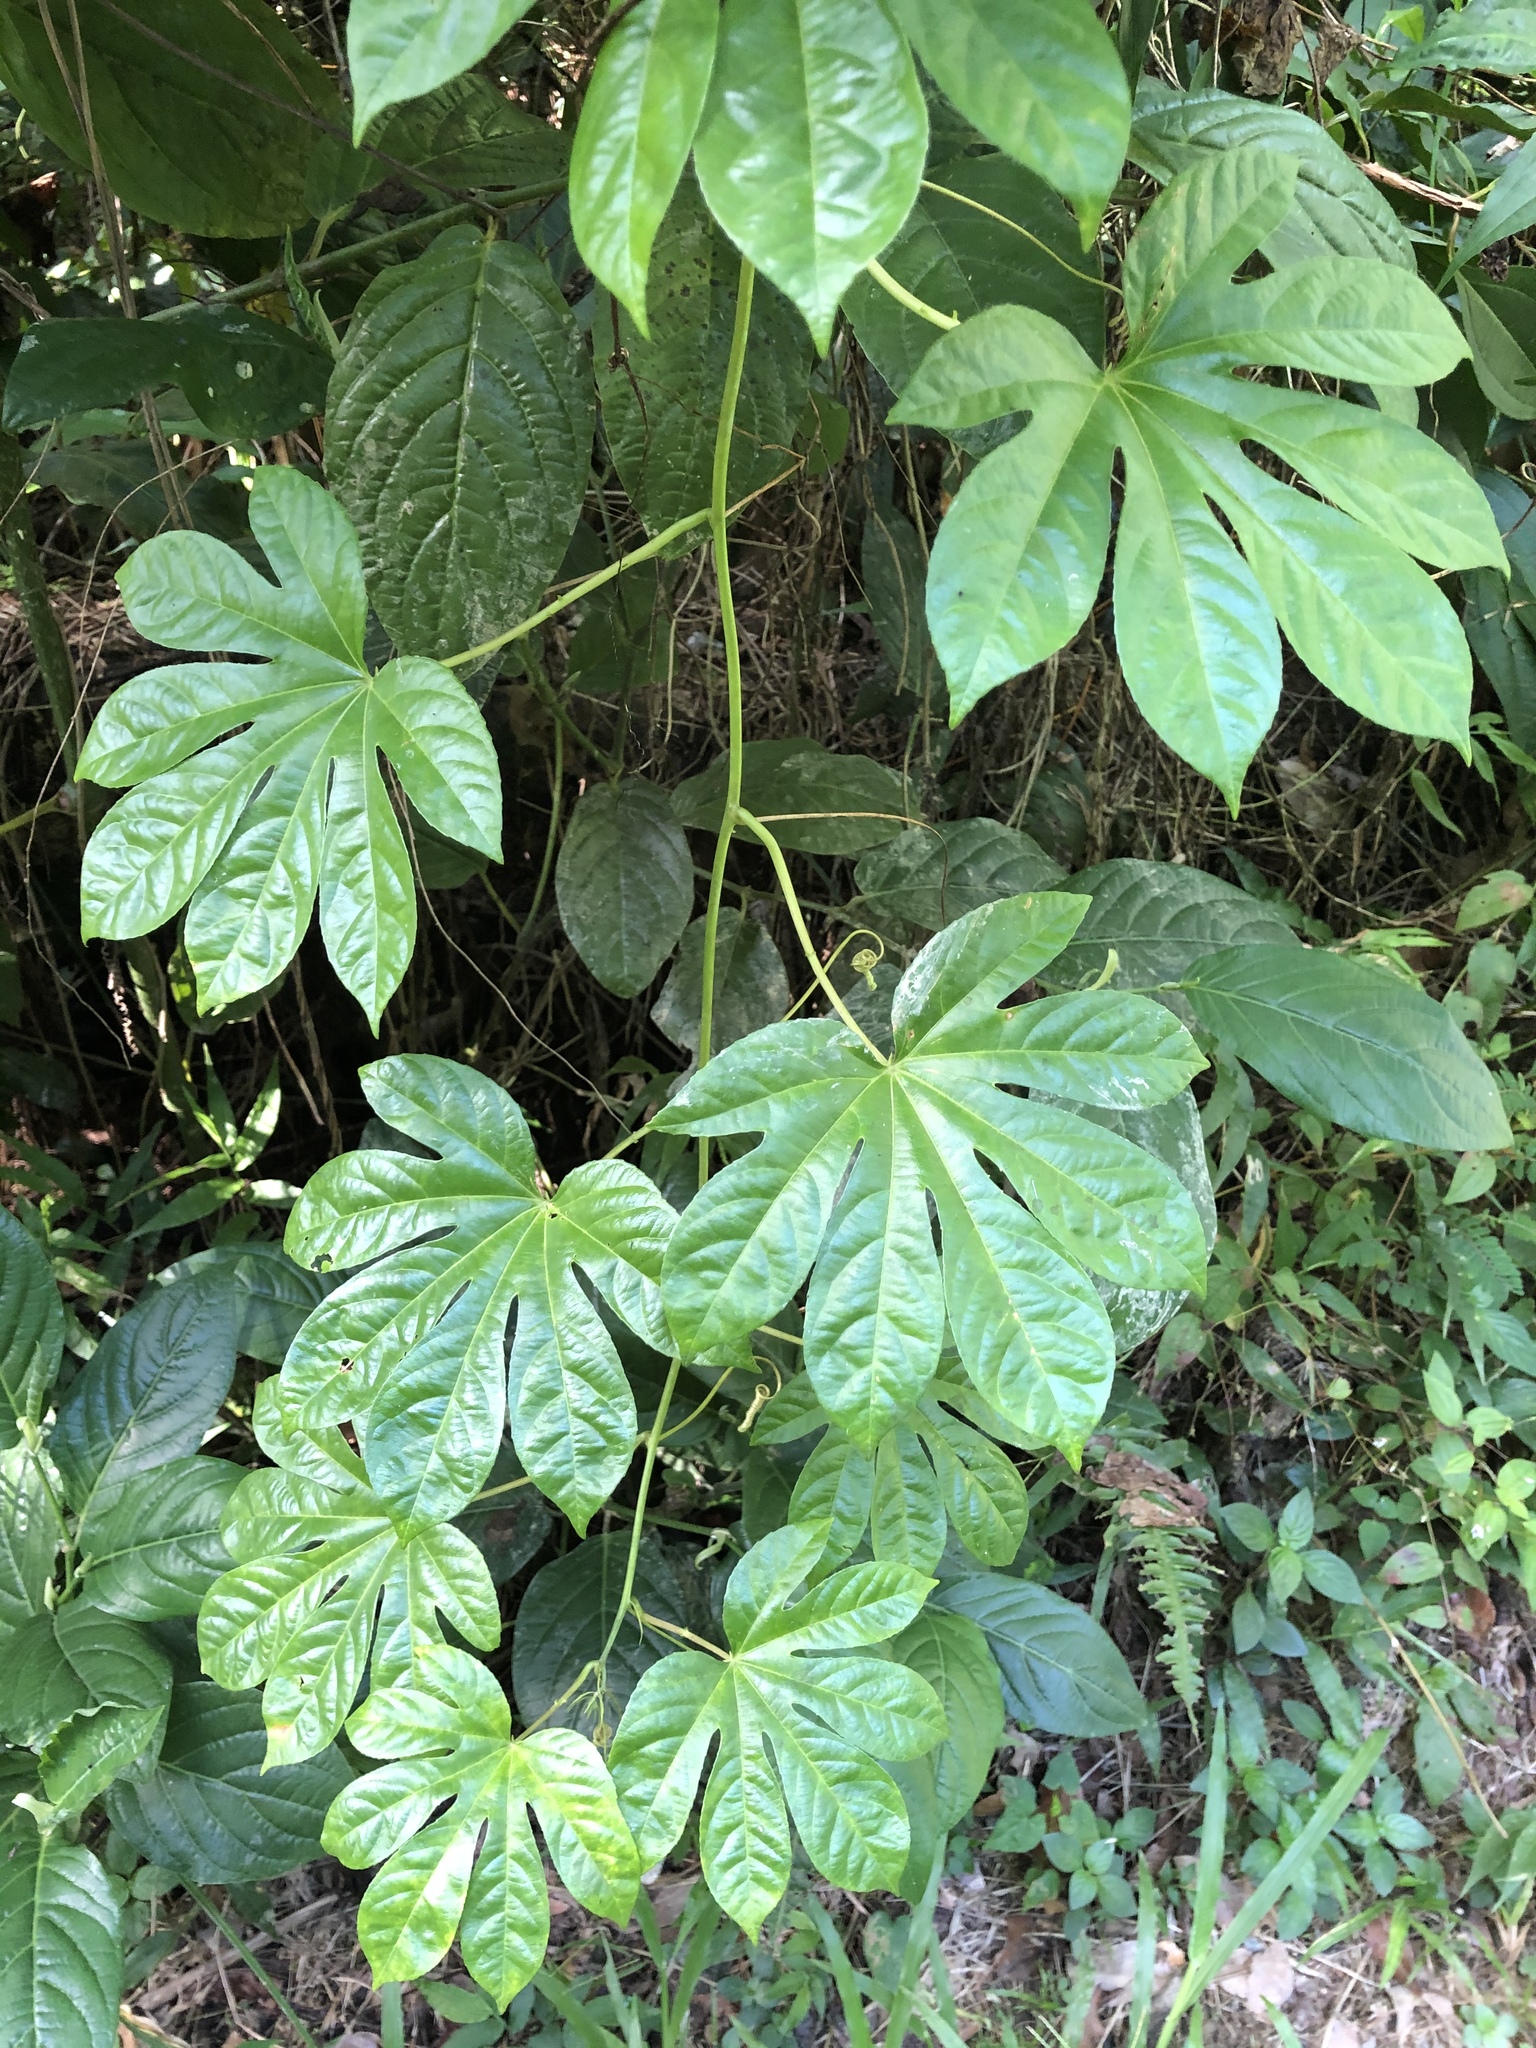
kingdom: Plantae
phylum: Tracheophyta
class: Magnoliopsida
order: Malpighiales
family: Passifloraceae
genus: Passiflora
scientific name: Passiflora serratodigitata
